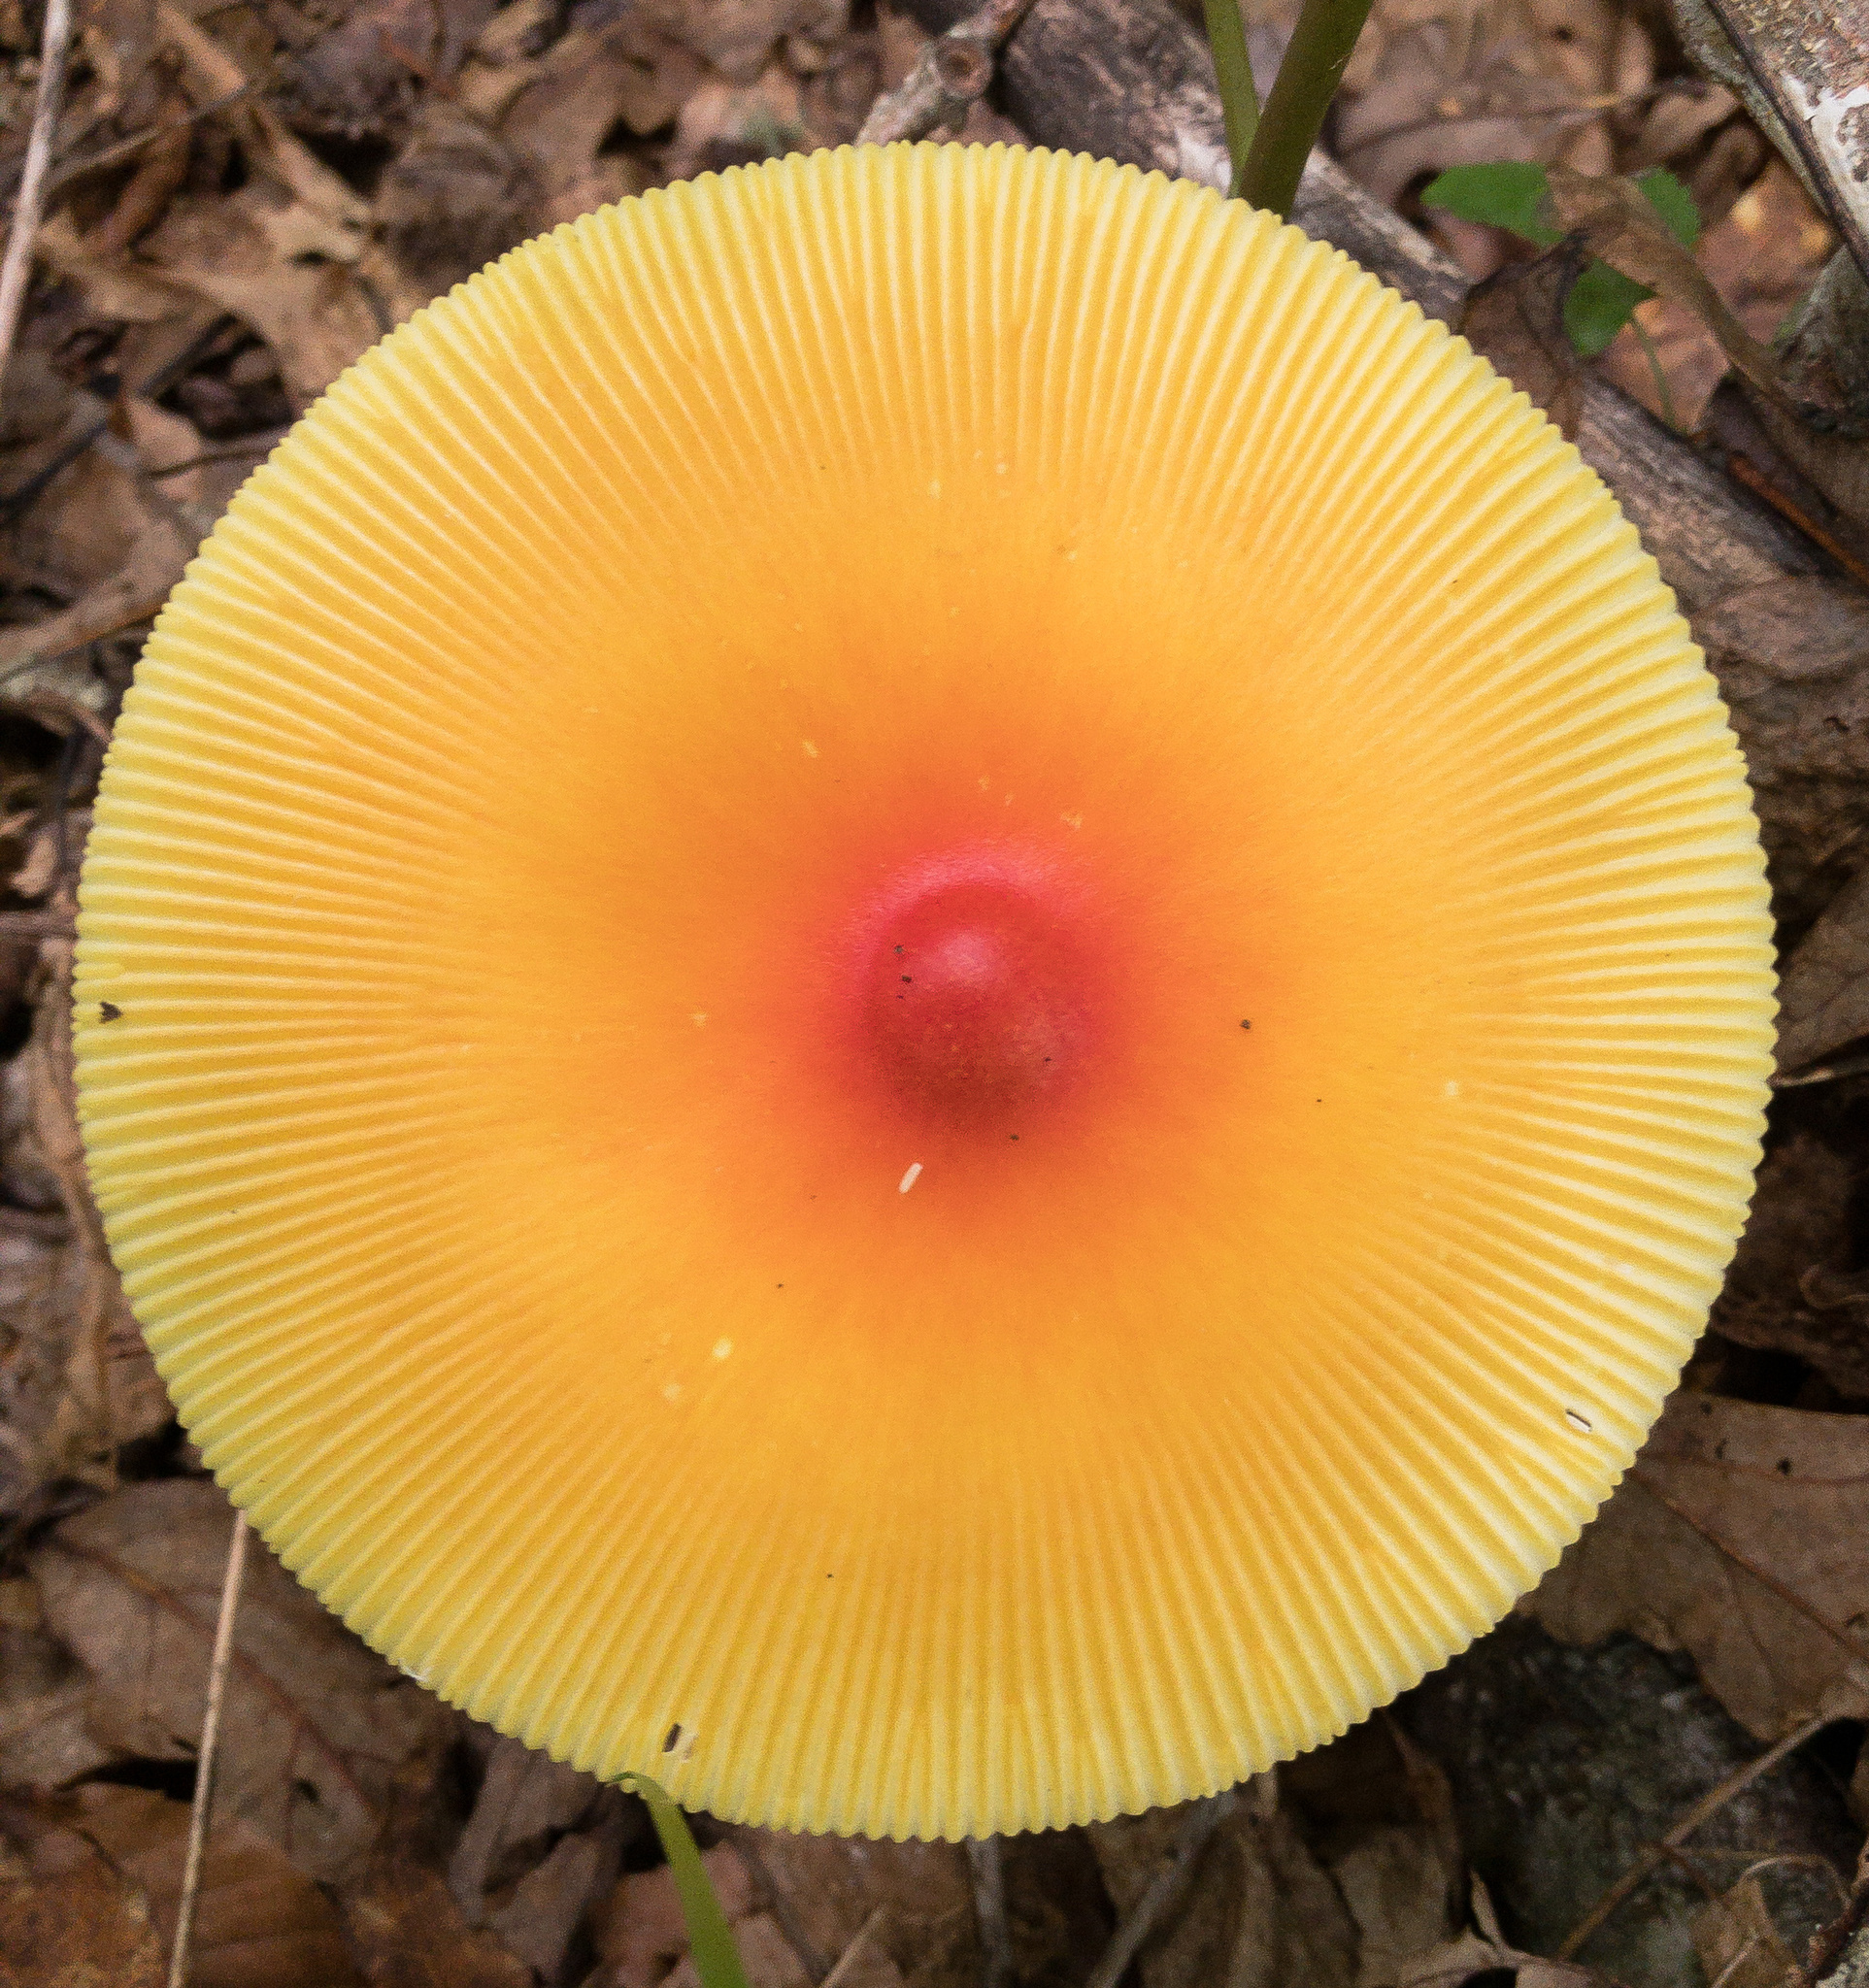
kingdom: Fungi
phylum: Basidiomycota
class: Agaricomycetes
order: Agaricales
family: Amanitaceae
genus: Amanita
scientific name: Amanita jacksonii
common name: Jackson's slender caesar
